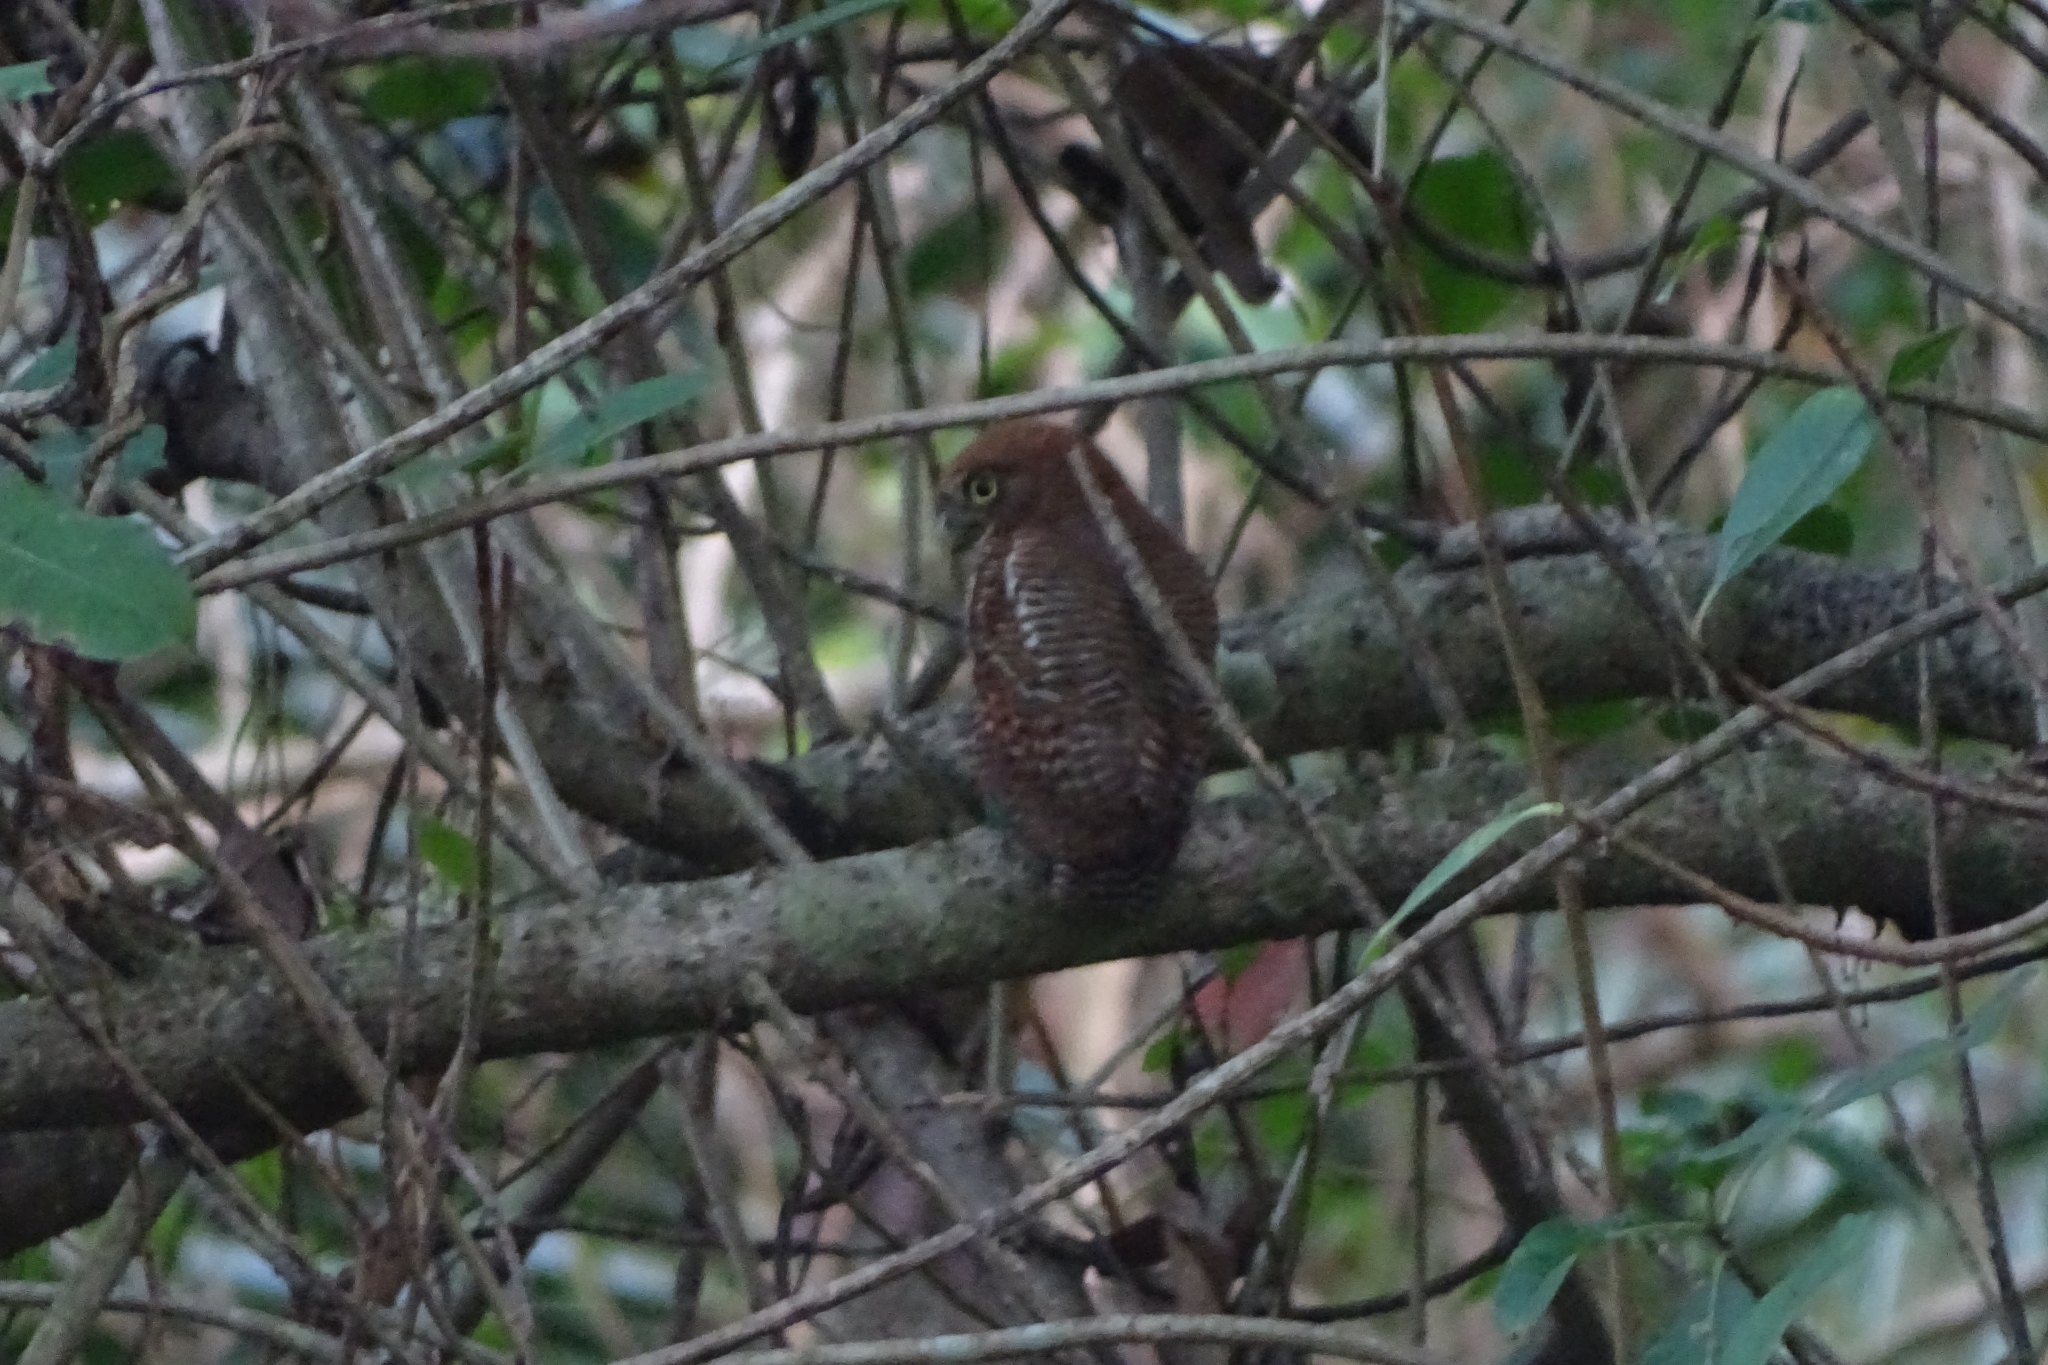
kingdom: Animalia
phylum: Chordata
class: Aves
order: Strigiformes
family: Strigidae
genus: Glaucidium
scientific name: Glaucidium radiatum
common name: Jungle owlet
